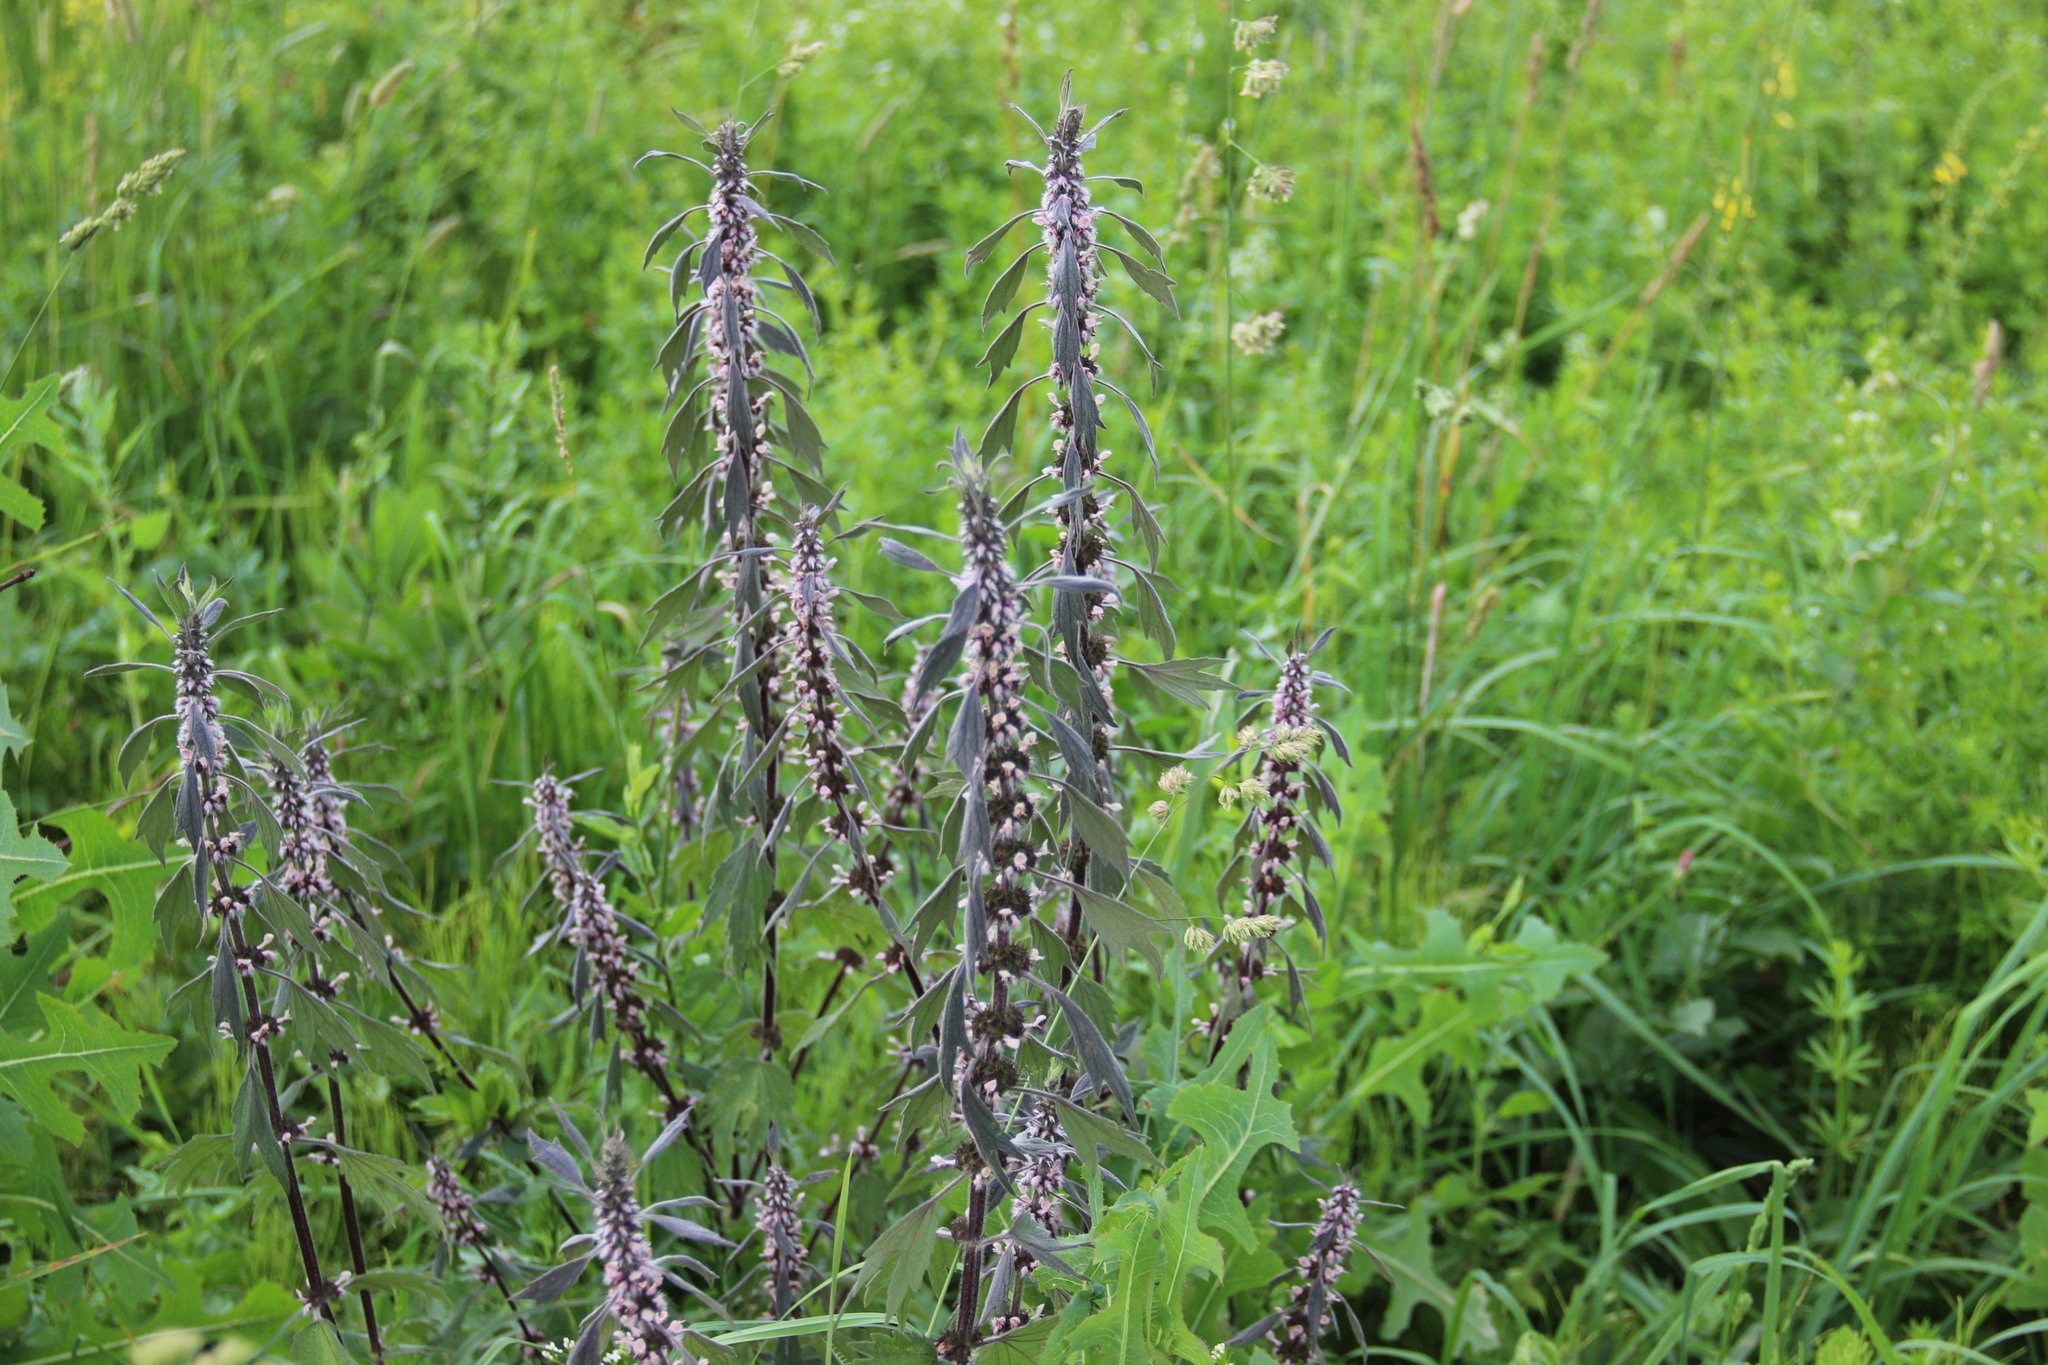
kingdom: Plantae
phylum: Tracheophyta
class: Magnoliopsida
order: Lamiales
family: Lamiaceae
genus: Leonurus
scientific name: Leonurus quinquelobatus
